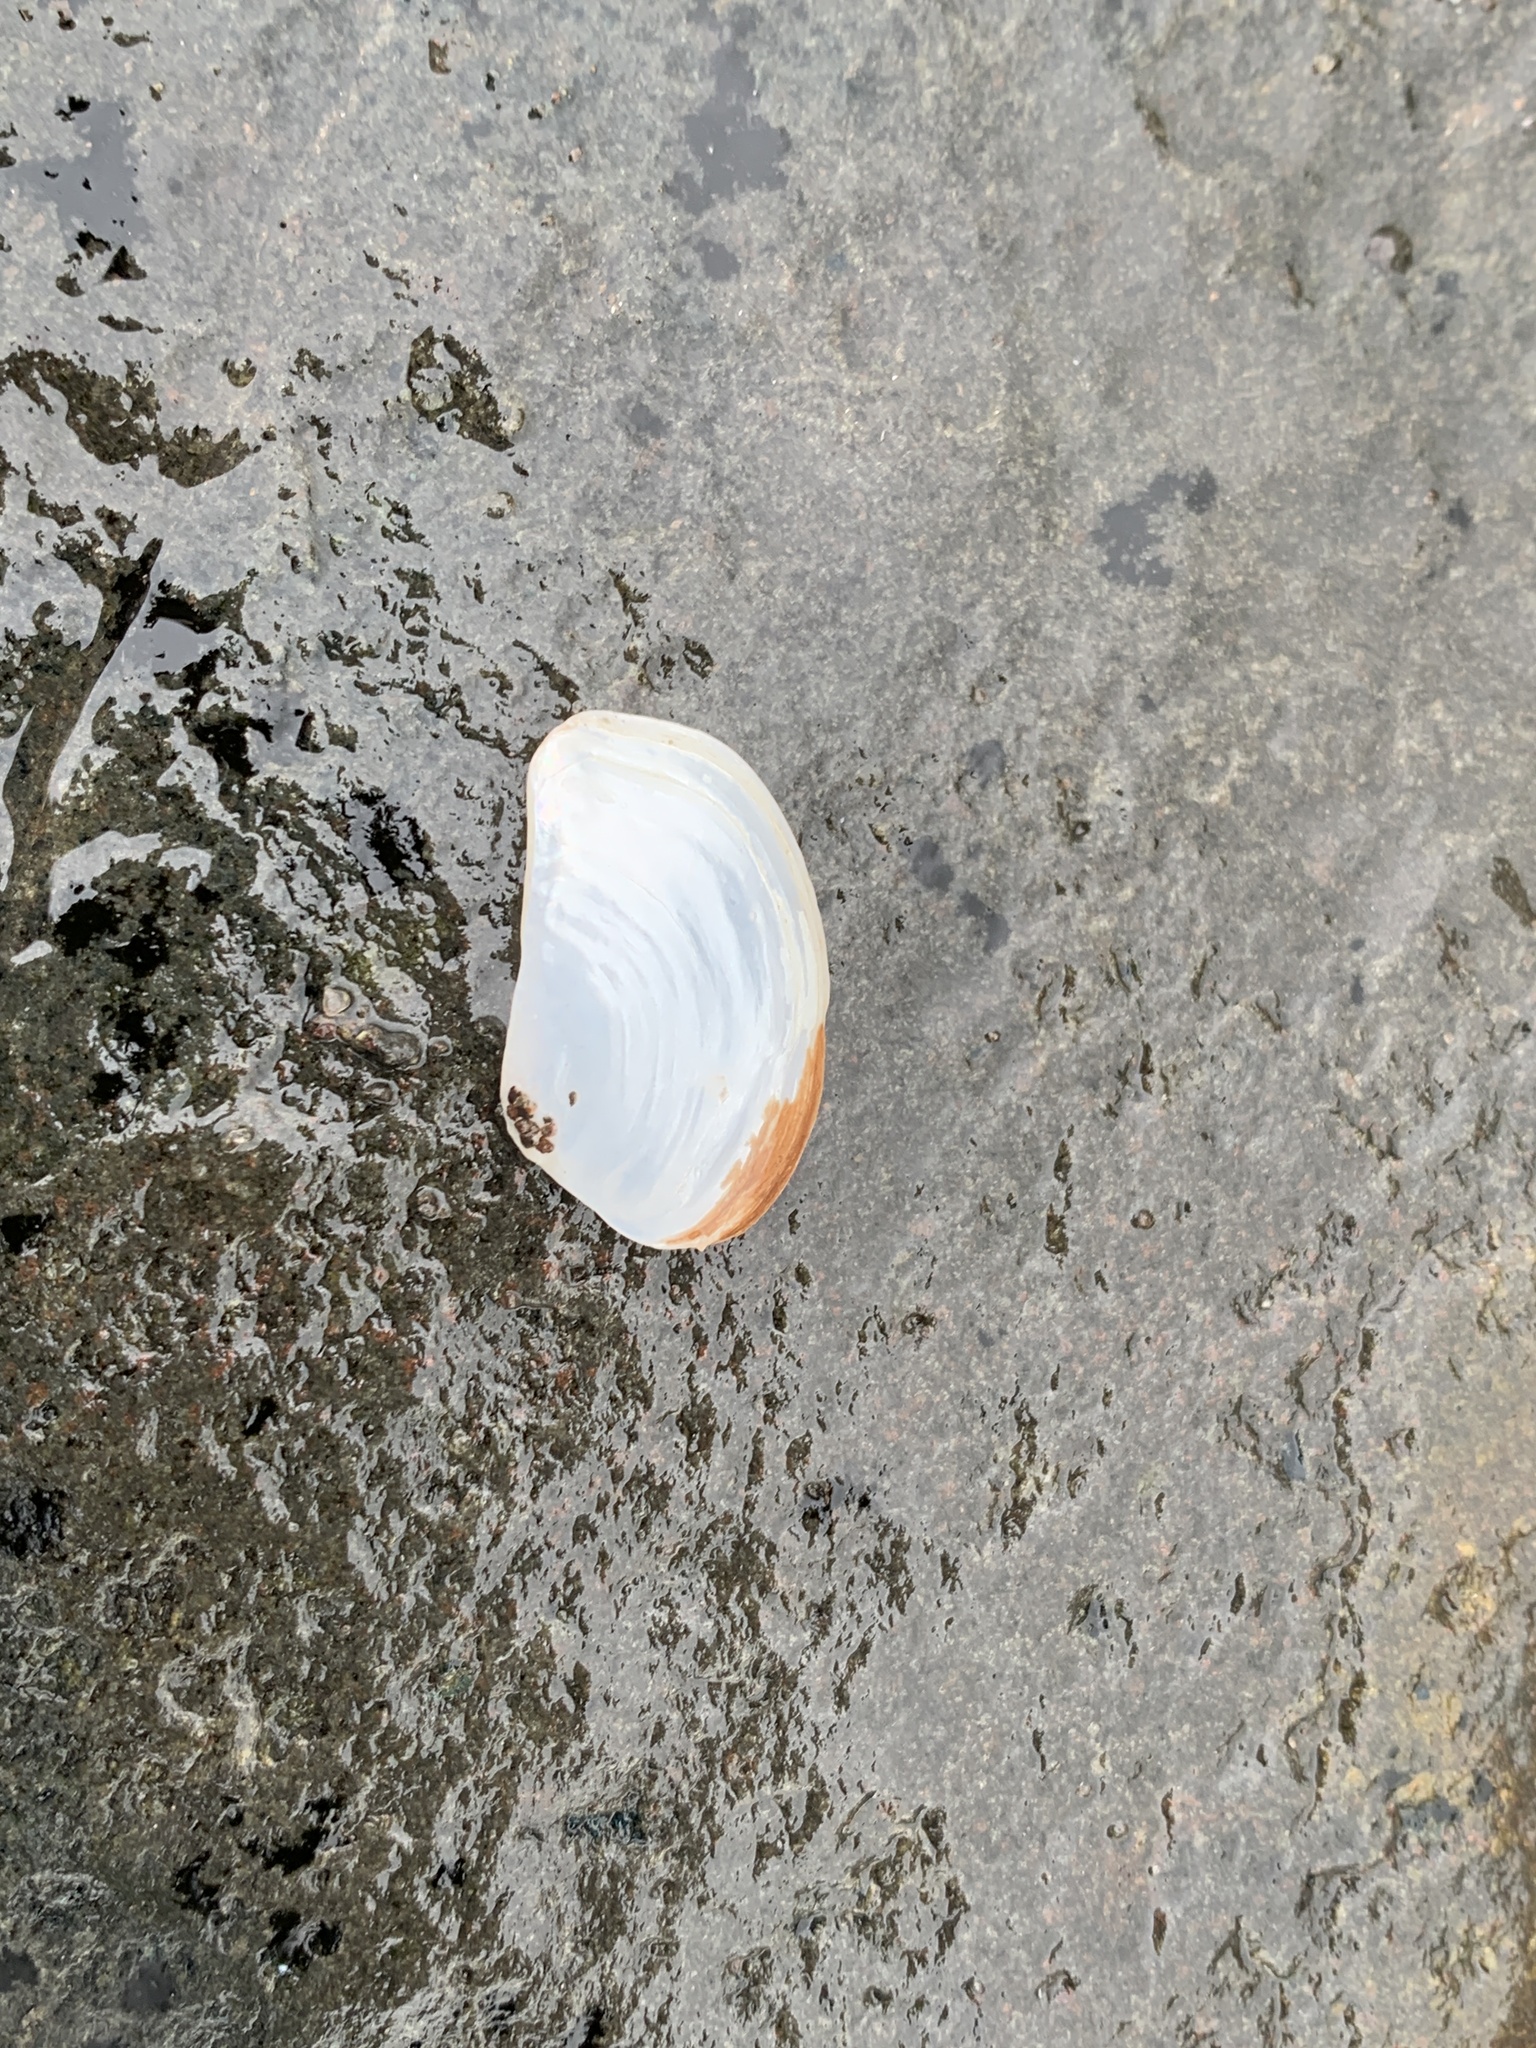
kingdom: Animalia
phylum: Mollusca
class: Bivalvia
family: Pandoridae
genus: Pandora
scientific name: Pandora gouldiana
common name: Rounded pandora
